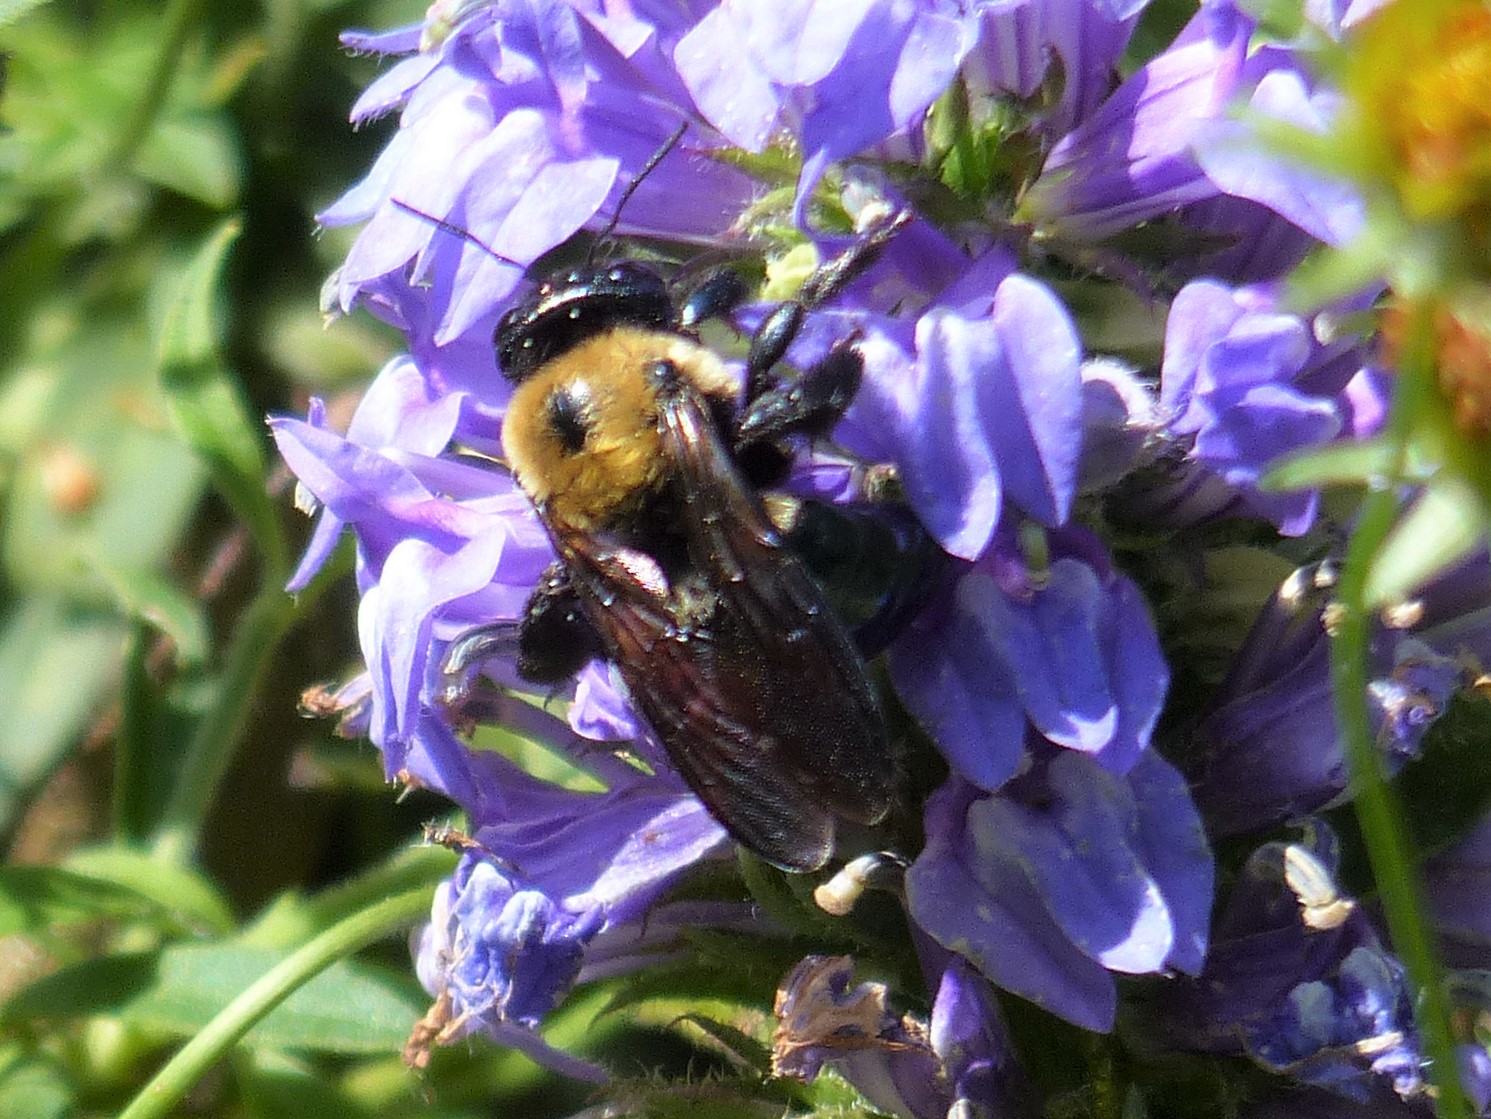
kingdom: Animalia
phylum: Arthropoda
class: Insecta
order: Hymenoptera
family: Apidae
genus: Xylocopa
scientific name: Xylocopa virginica
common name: Carpenter bee
